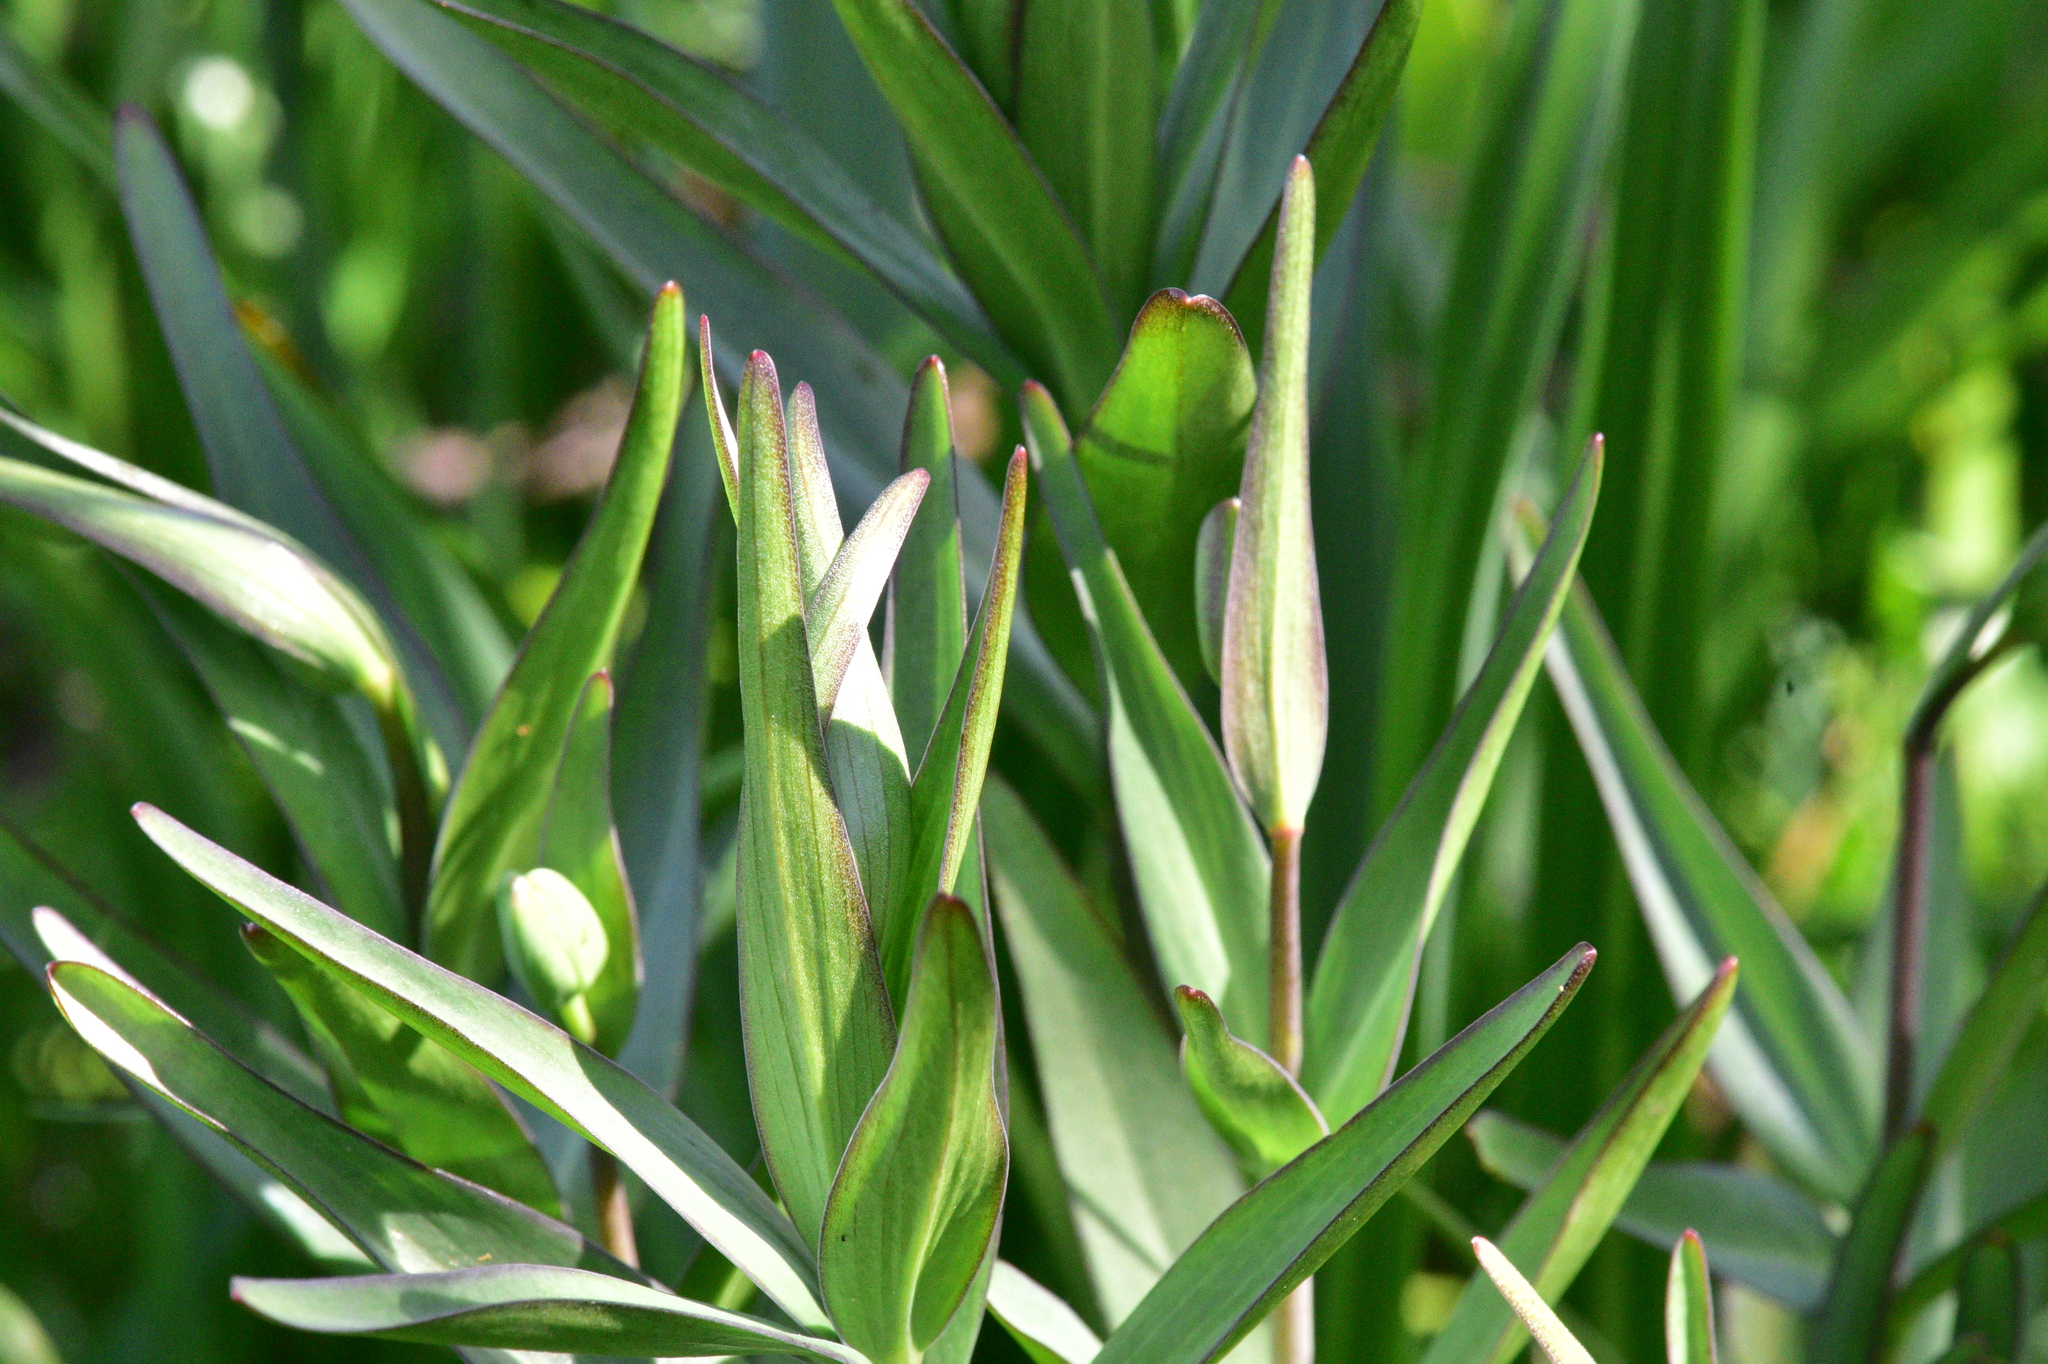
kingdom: Plantae
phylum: Tracheophyta
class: Liliopsida
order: Liliales
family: Liliaceae
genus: Fritillaria
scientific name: Fritillaria affinis
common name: Ojai fritillary
